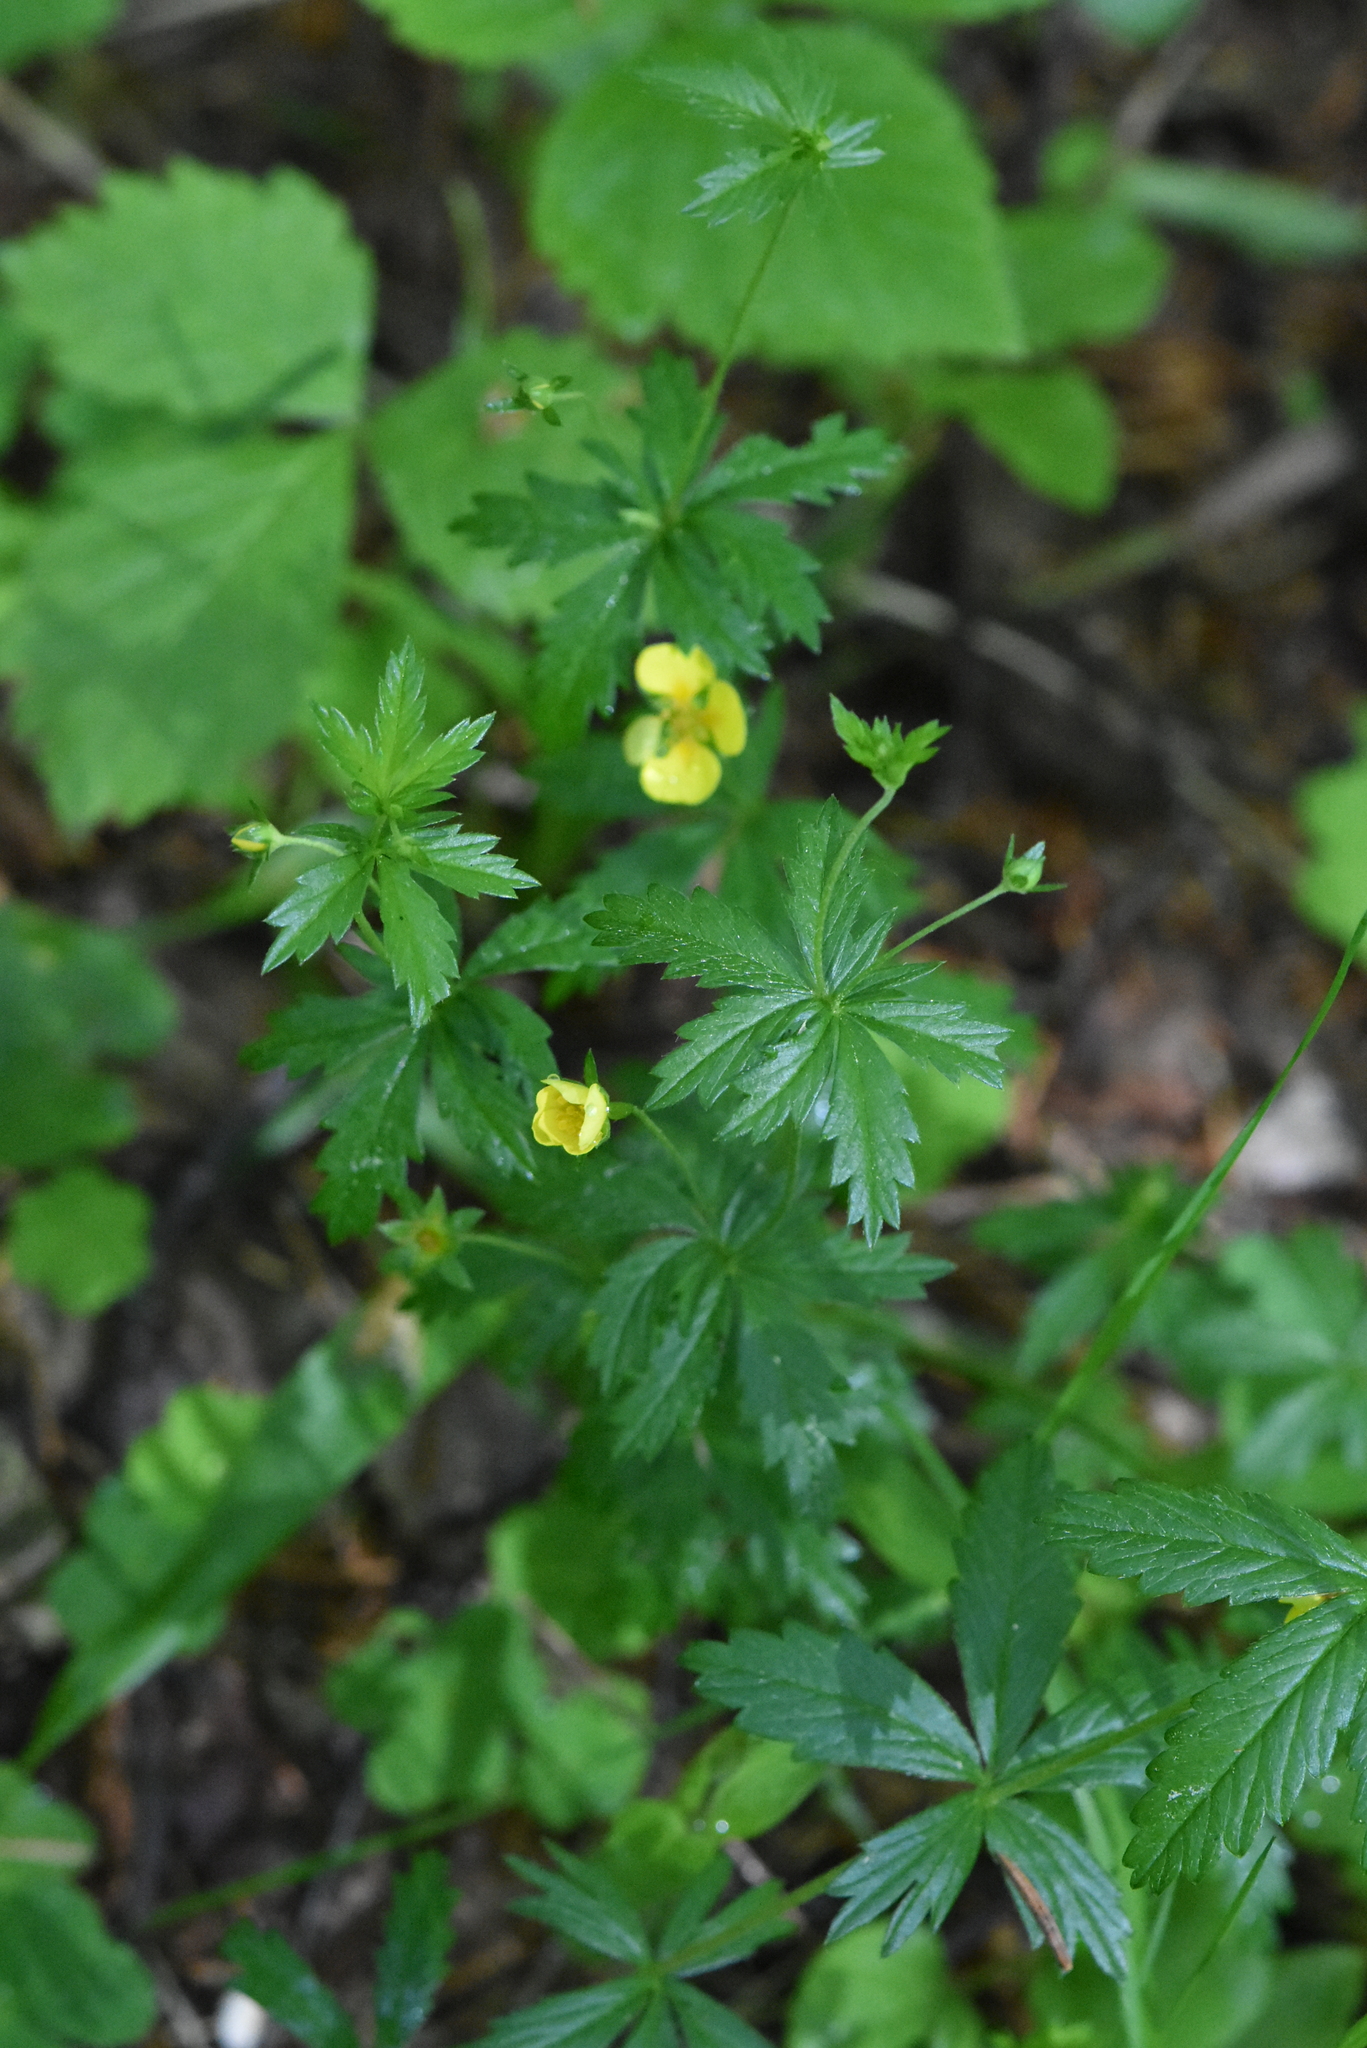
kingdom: Plantae
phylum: Tracheophyta
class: Magnoliopsida
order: Rosales
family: Rosaceae
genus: Potentilla
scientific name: Potentilla erecta
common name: Tormentil
